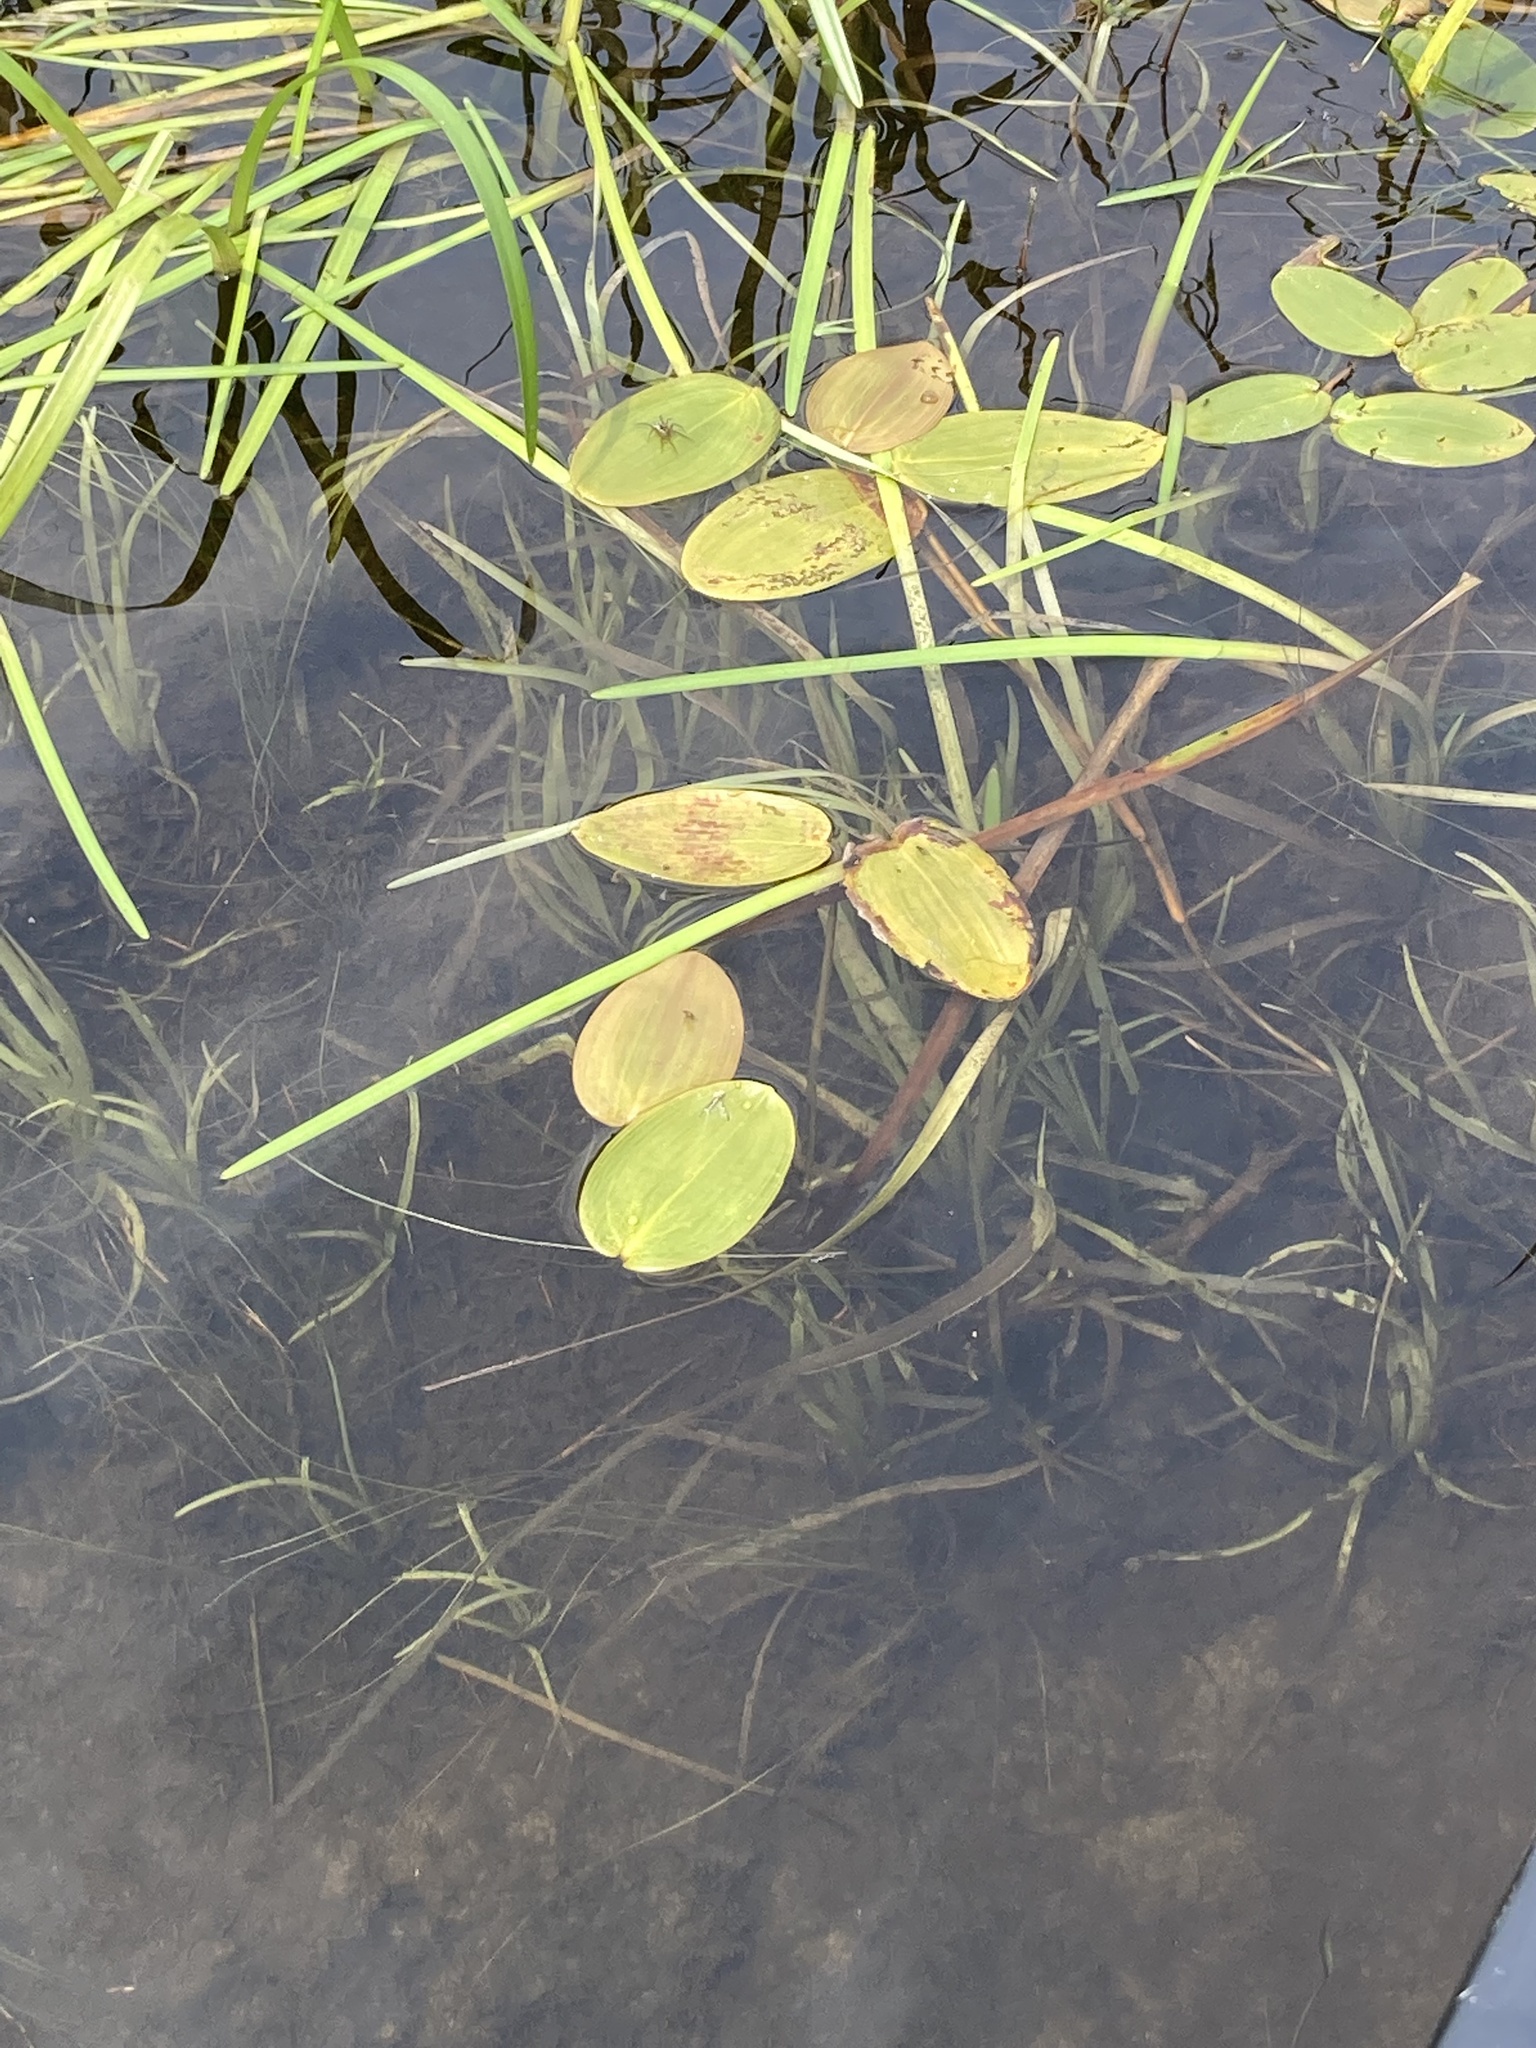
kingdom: Plantae
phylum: Tracheophyta
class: Liliopsida
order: Alismatales
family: Potamogetonaceae
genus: Potamogeton
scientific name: Potamogeton natans
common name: Broad-leaved pondweed
